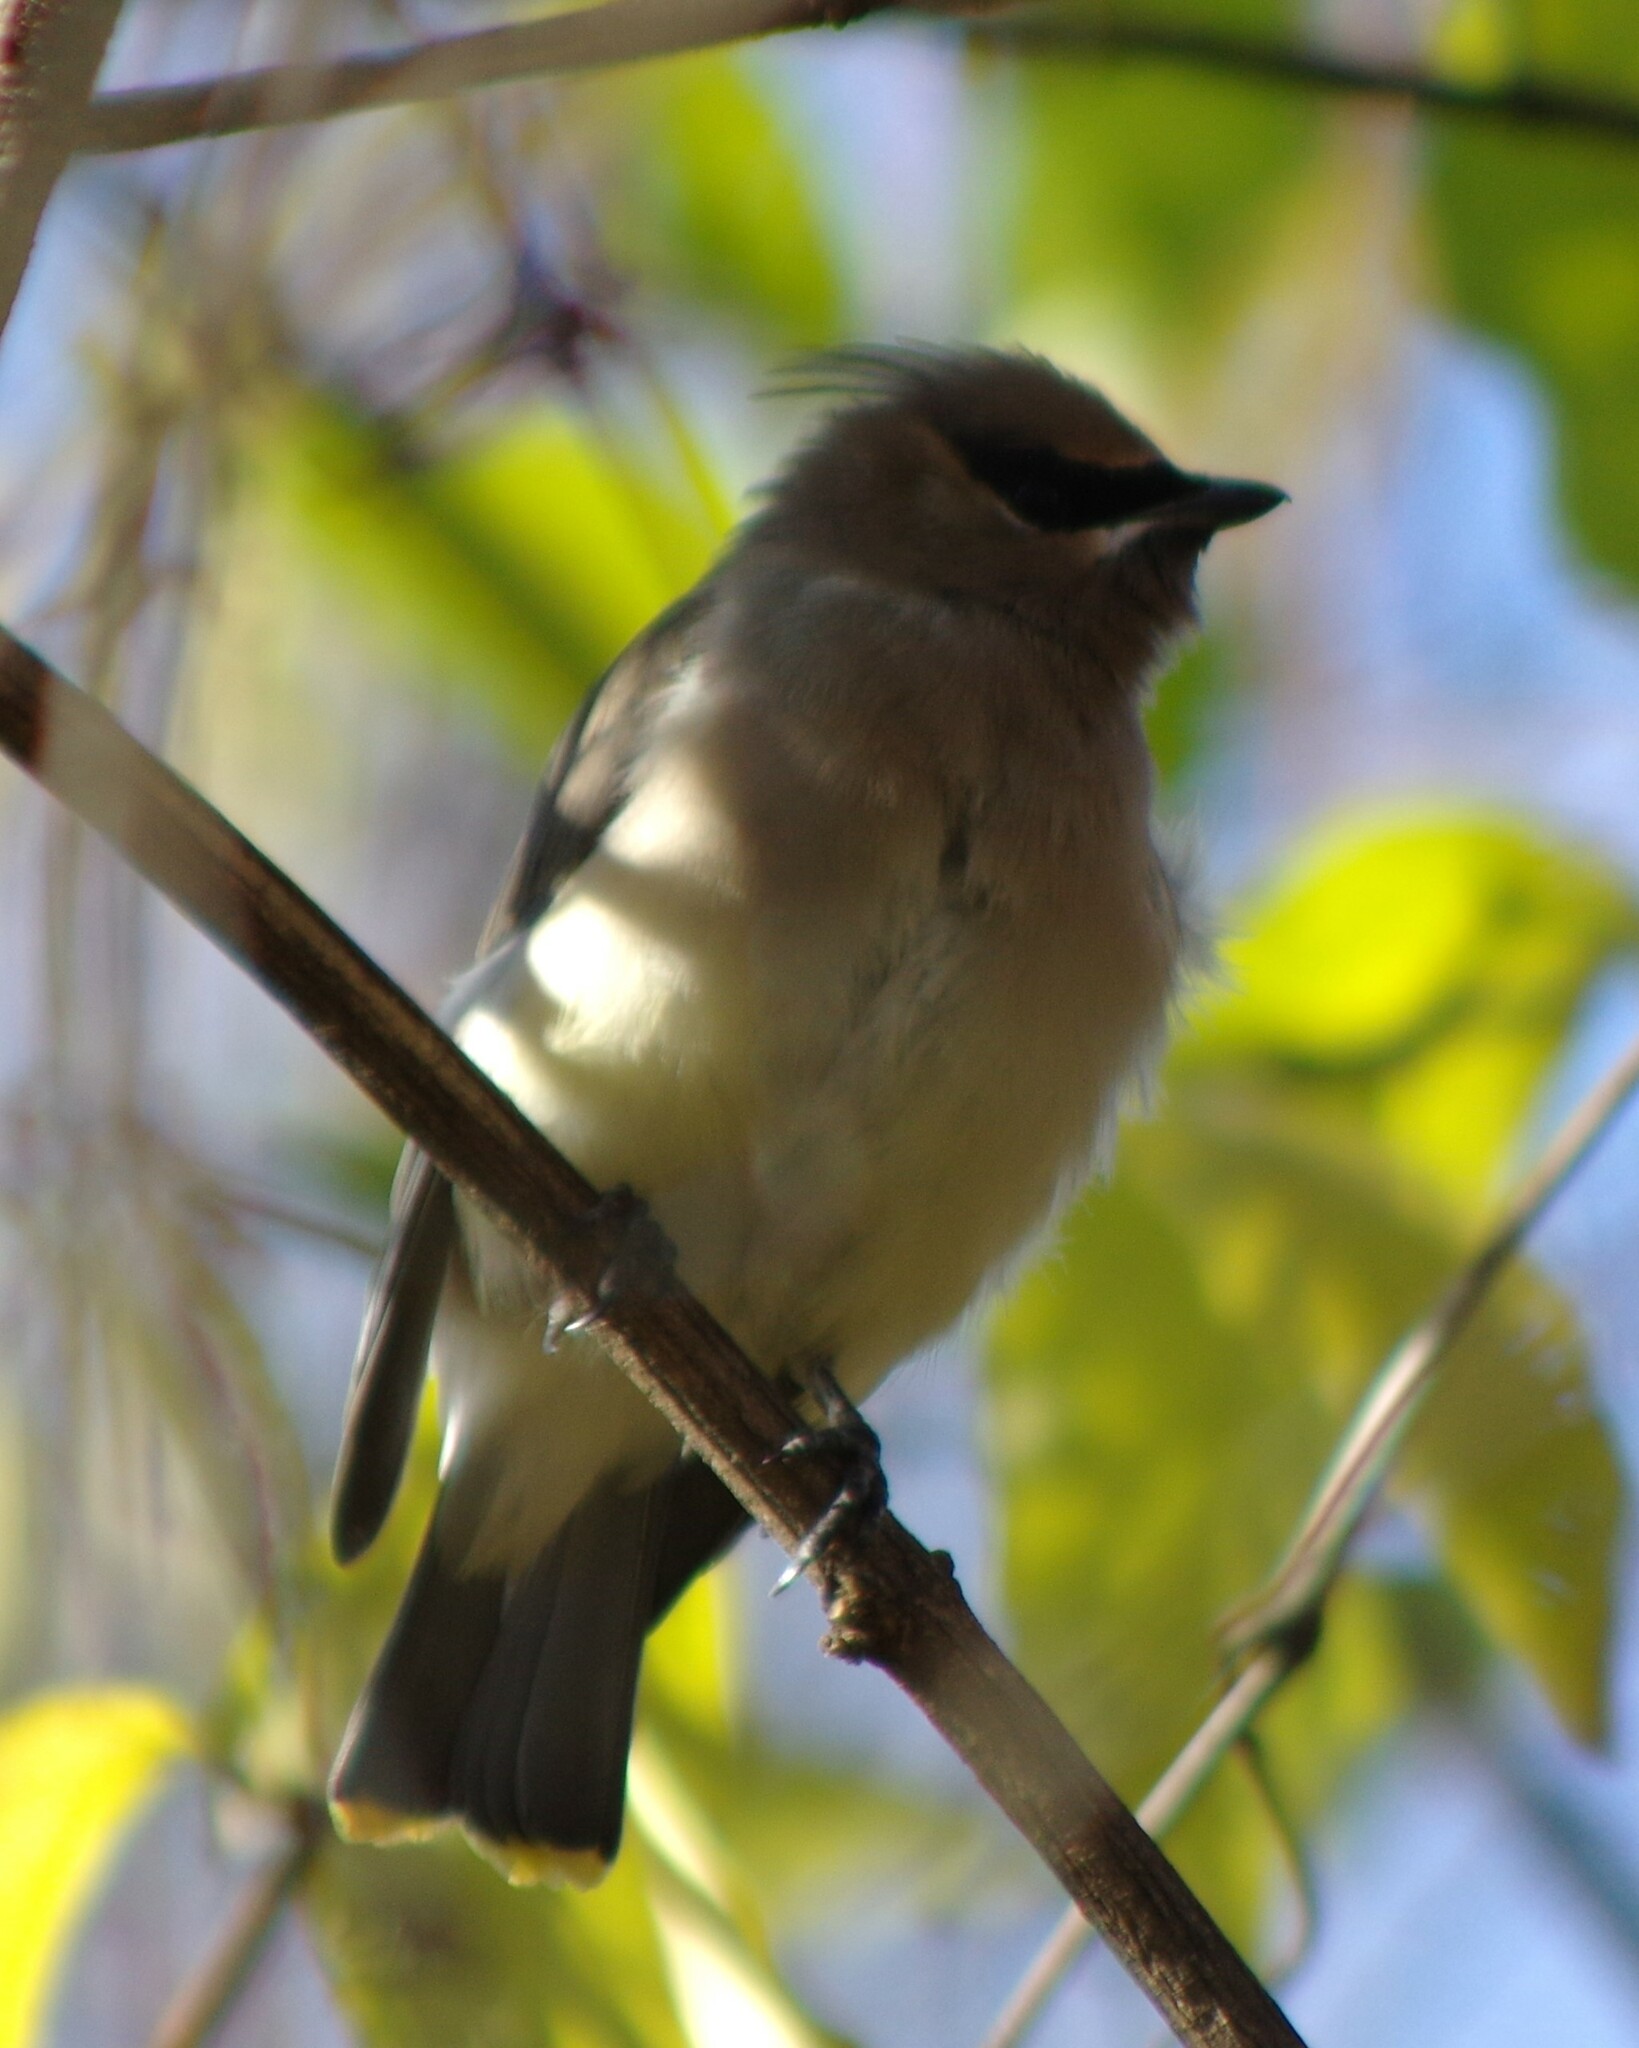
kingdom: Animalia
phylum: Chordata
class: Aves
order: Passeriformes
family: Bombycillidae
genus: Bombycilla
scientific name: Bombycilla cedrorum
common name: Cedar waxwing
